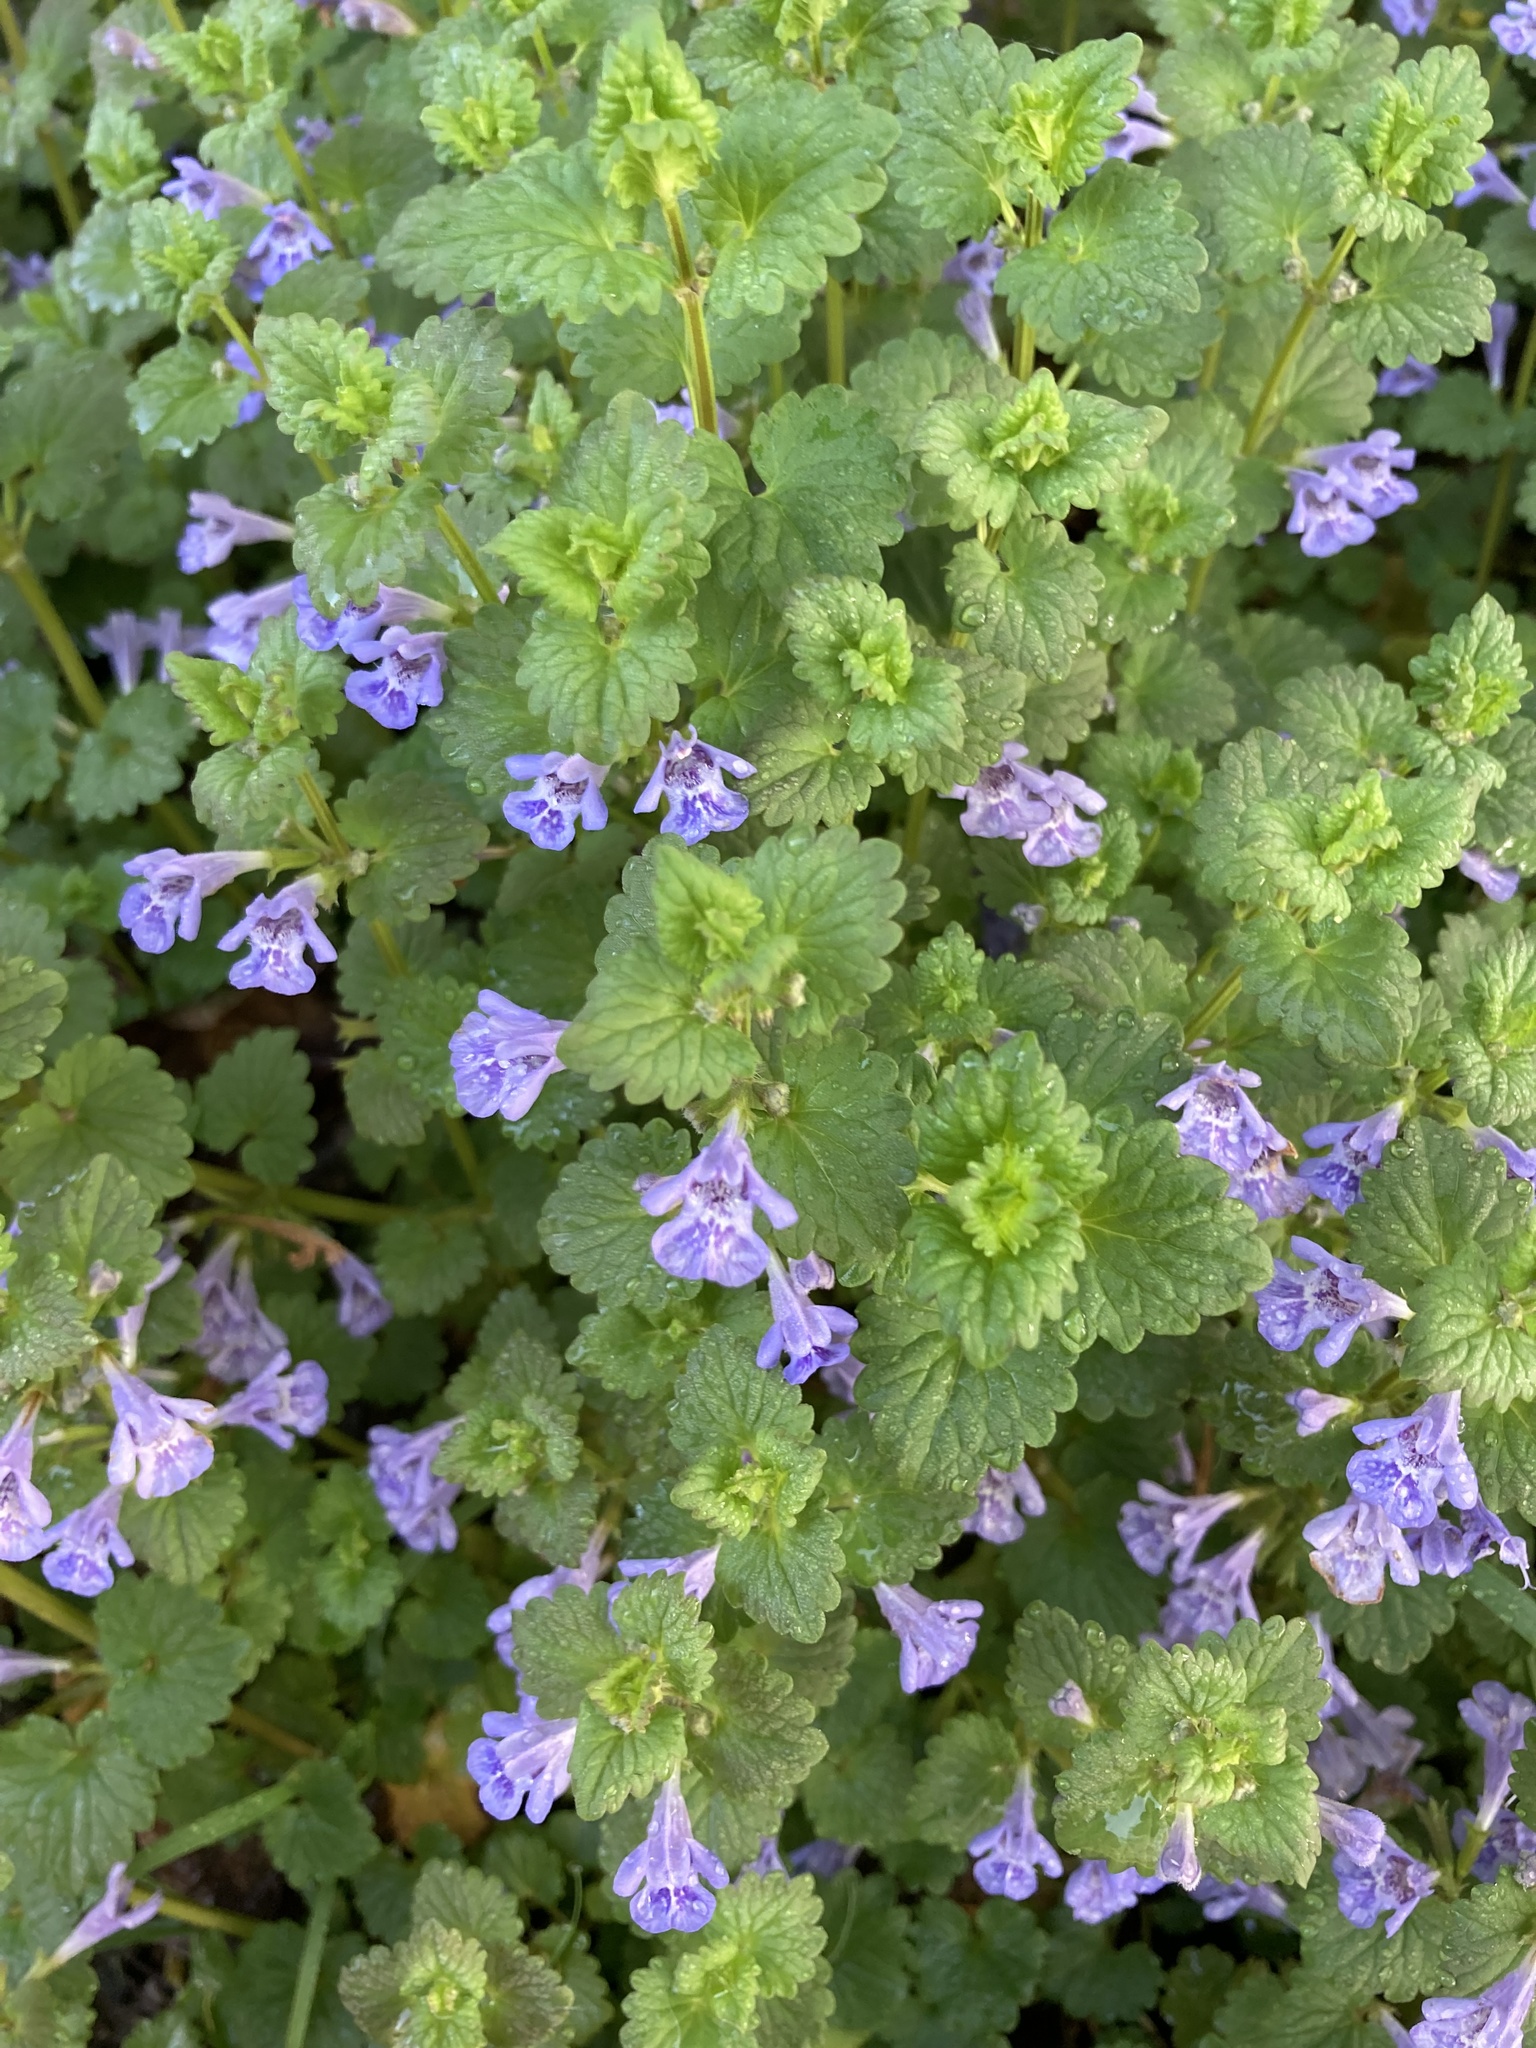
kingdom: Plantae
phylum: Tracheophyta
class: Magnoliopsida
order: Lamiales
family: Lamiaceae
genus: Glechoma
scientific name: Glechoma hederacea
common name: Ground ivy
